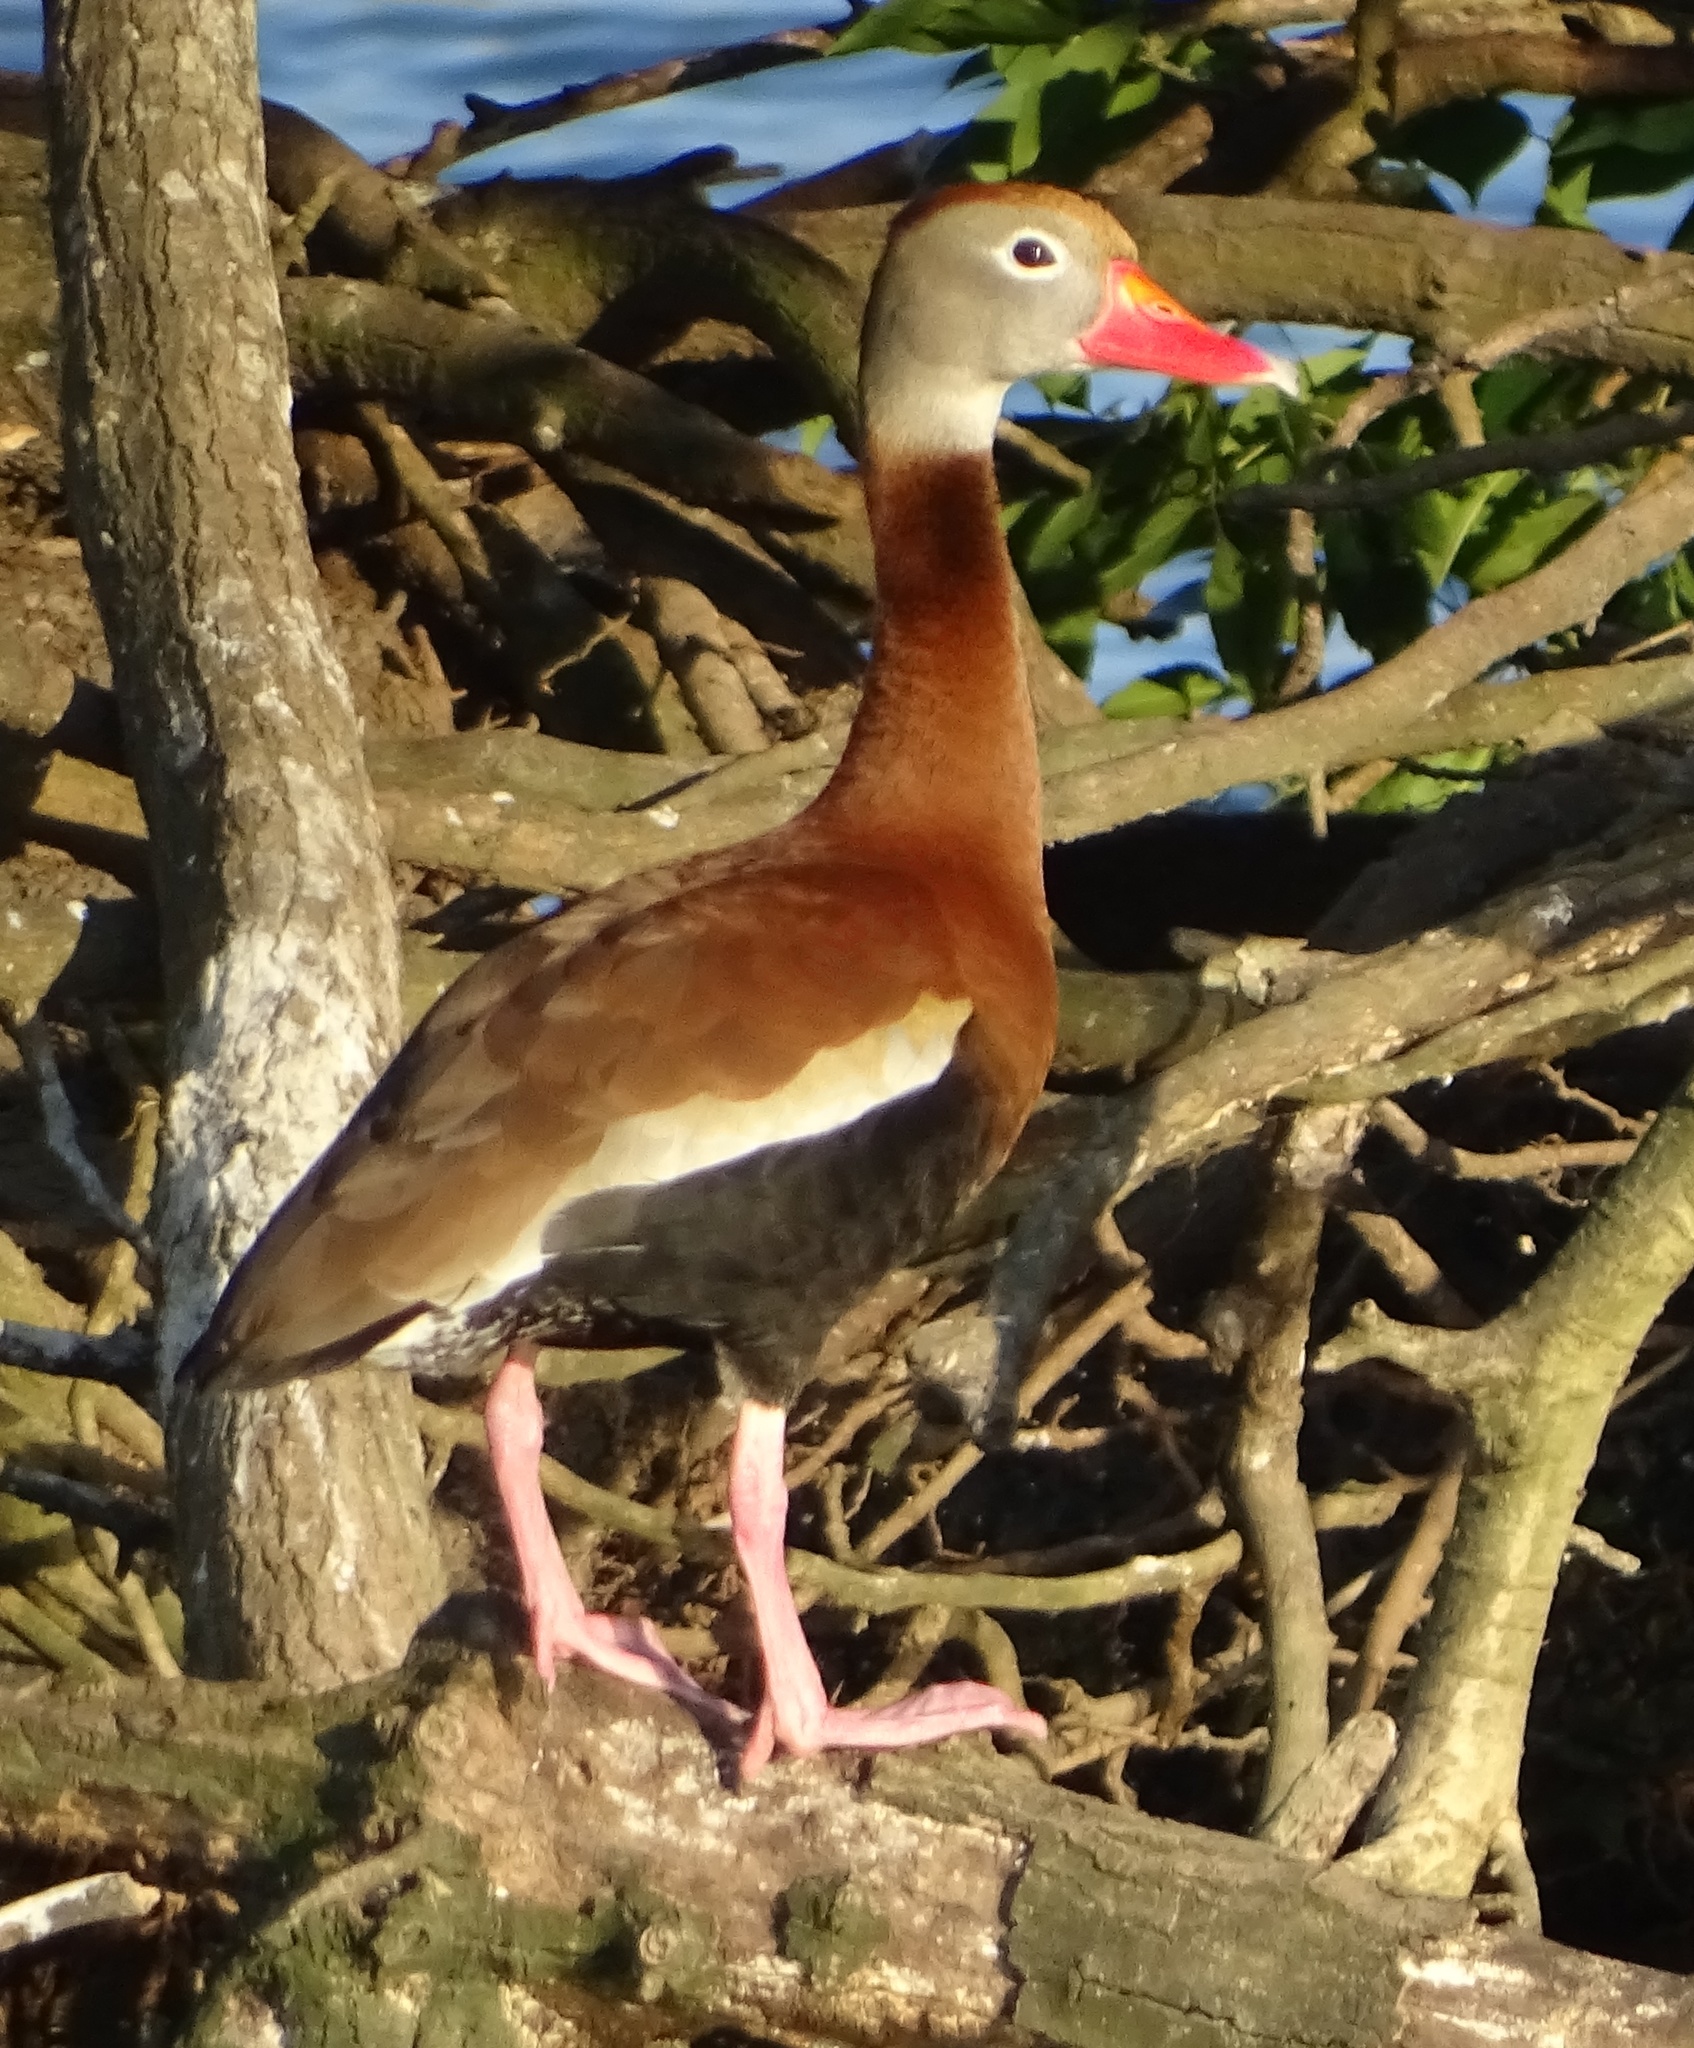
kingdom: Animalia
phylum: Chordata
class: Aves
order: Anseriformes
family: Anatidae
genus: Dendrocygna
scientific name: Dendrocygna autumnalis
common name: Black-bellied whistling duck
